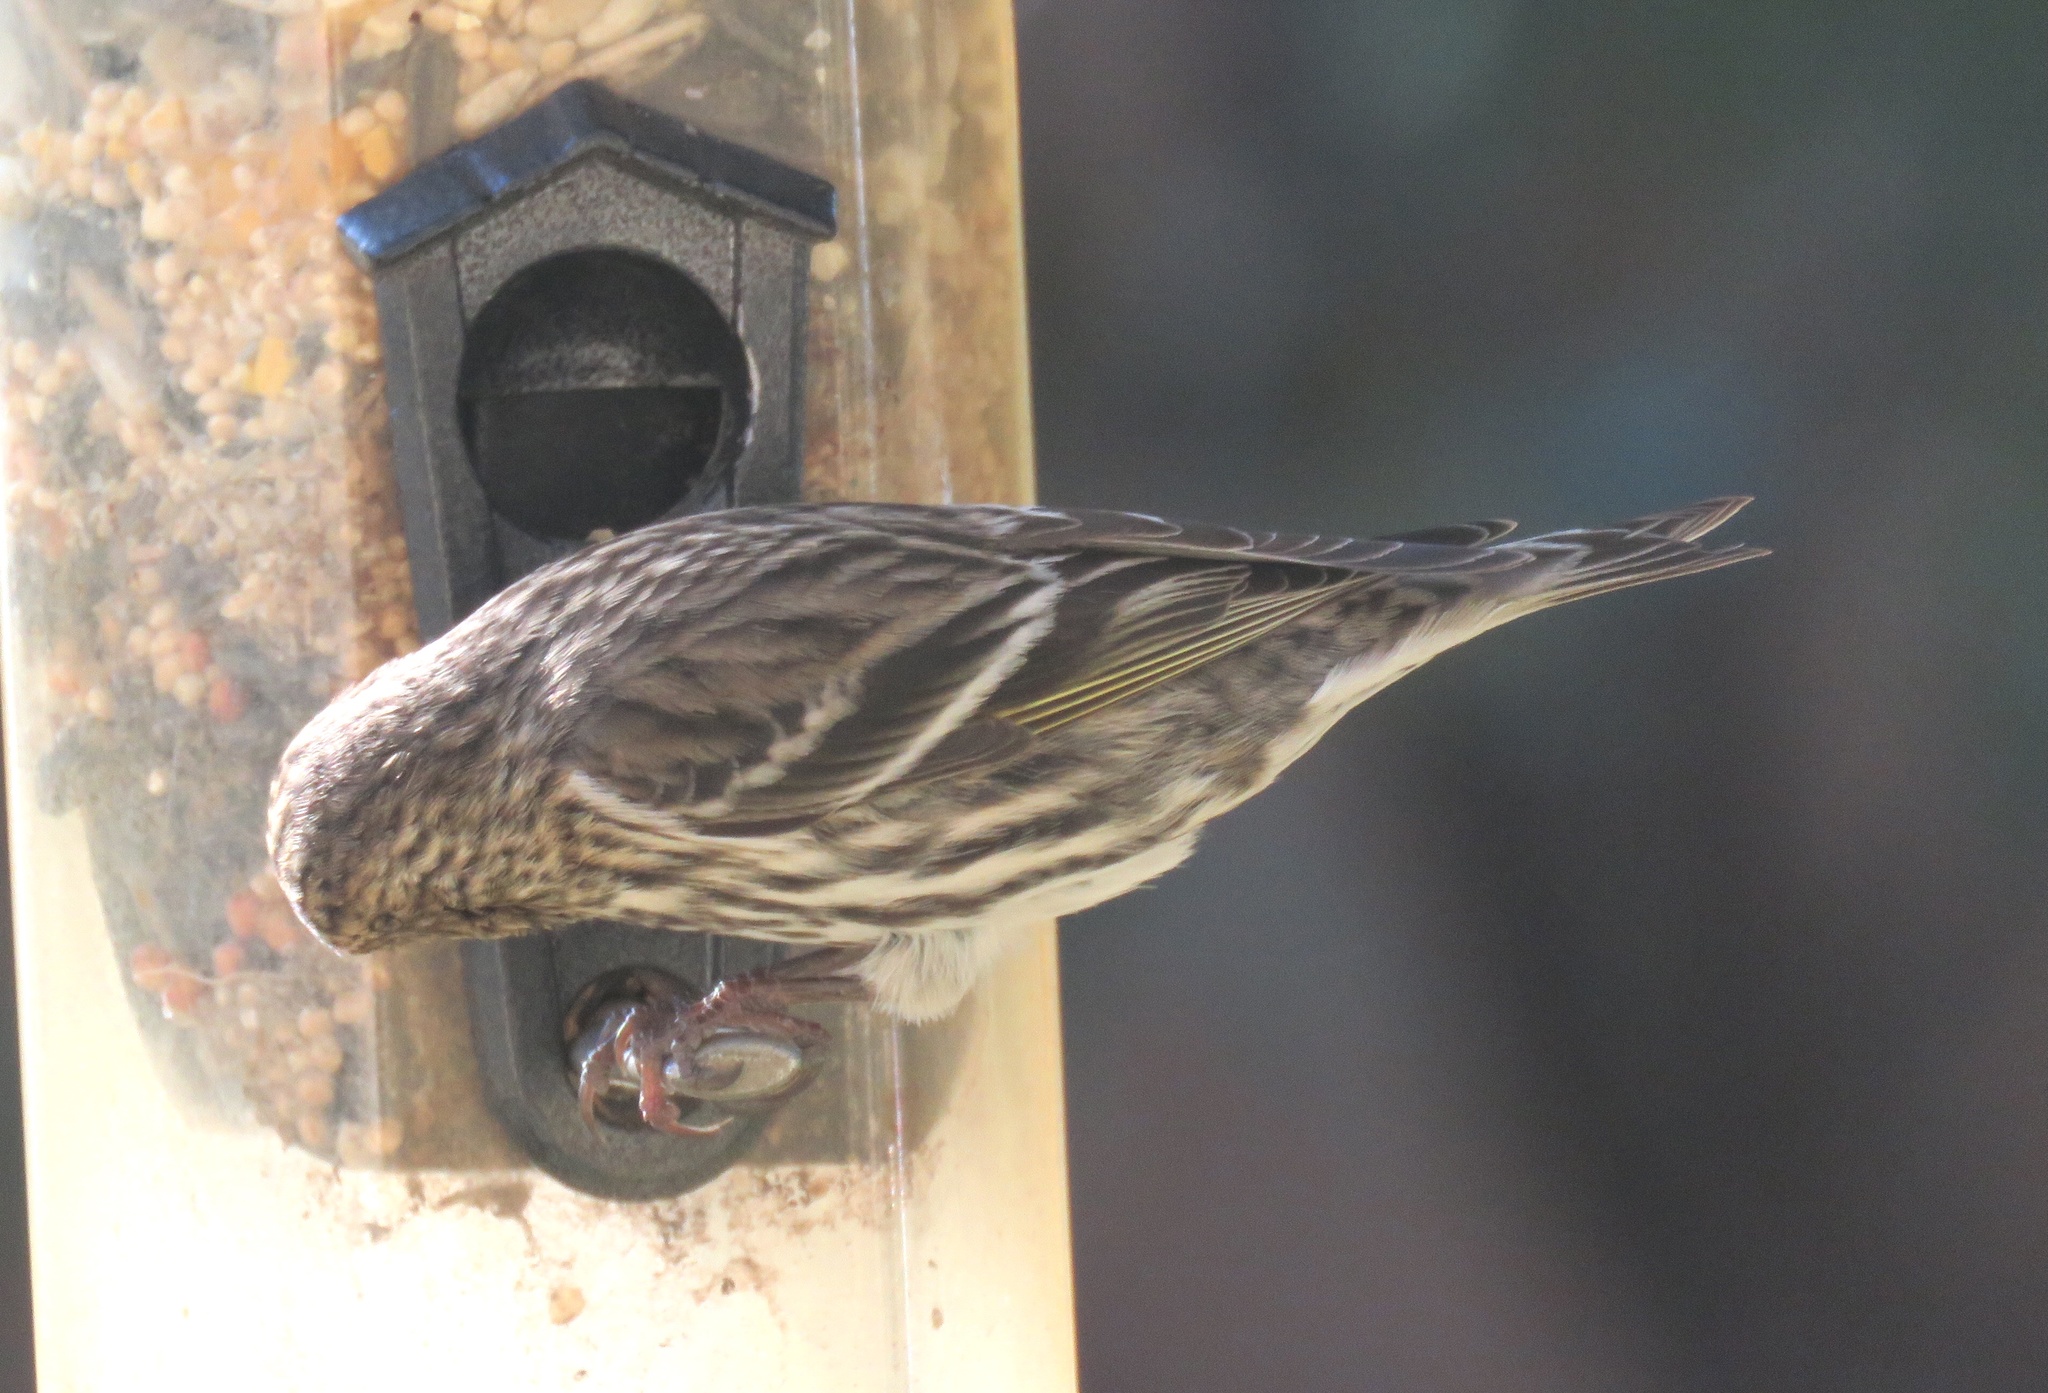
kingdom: Animalia
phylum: Chordata
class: Aves
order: Passeriformes
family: Fringillidae
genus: Spinus
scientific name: Spinus pinus
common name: Pine siskin
